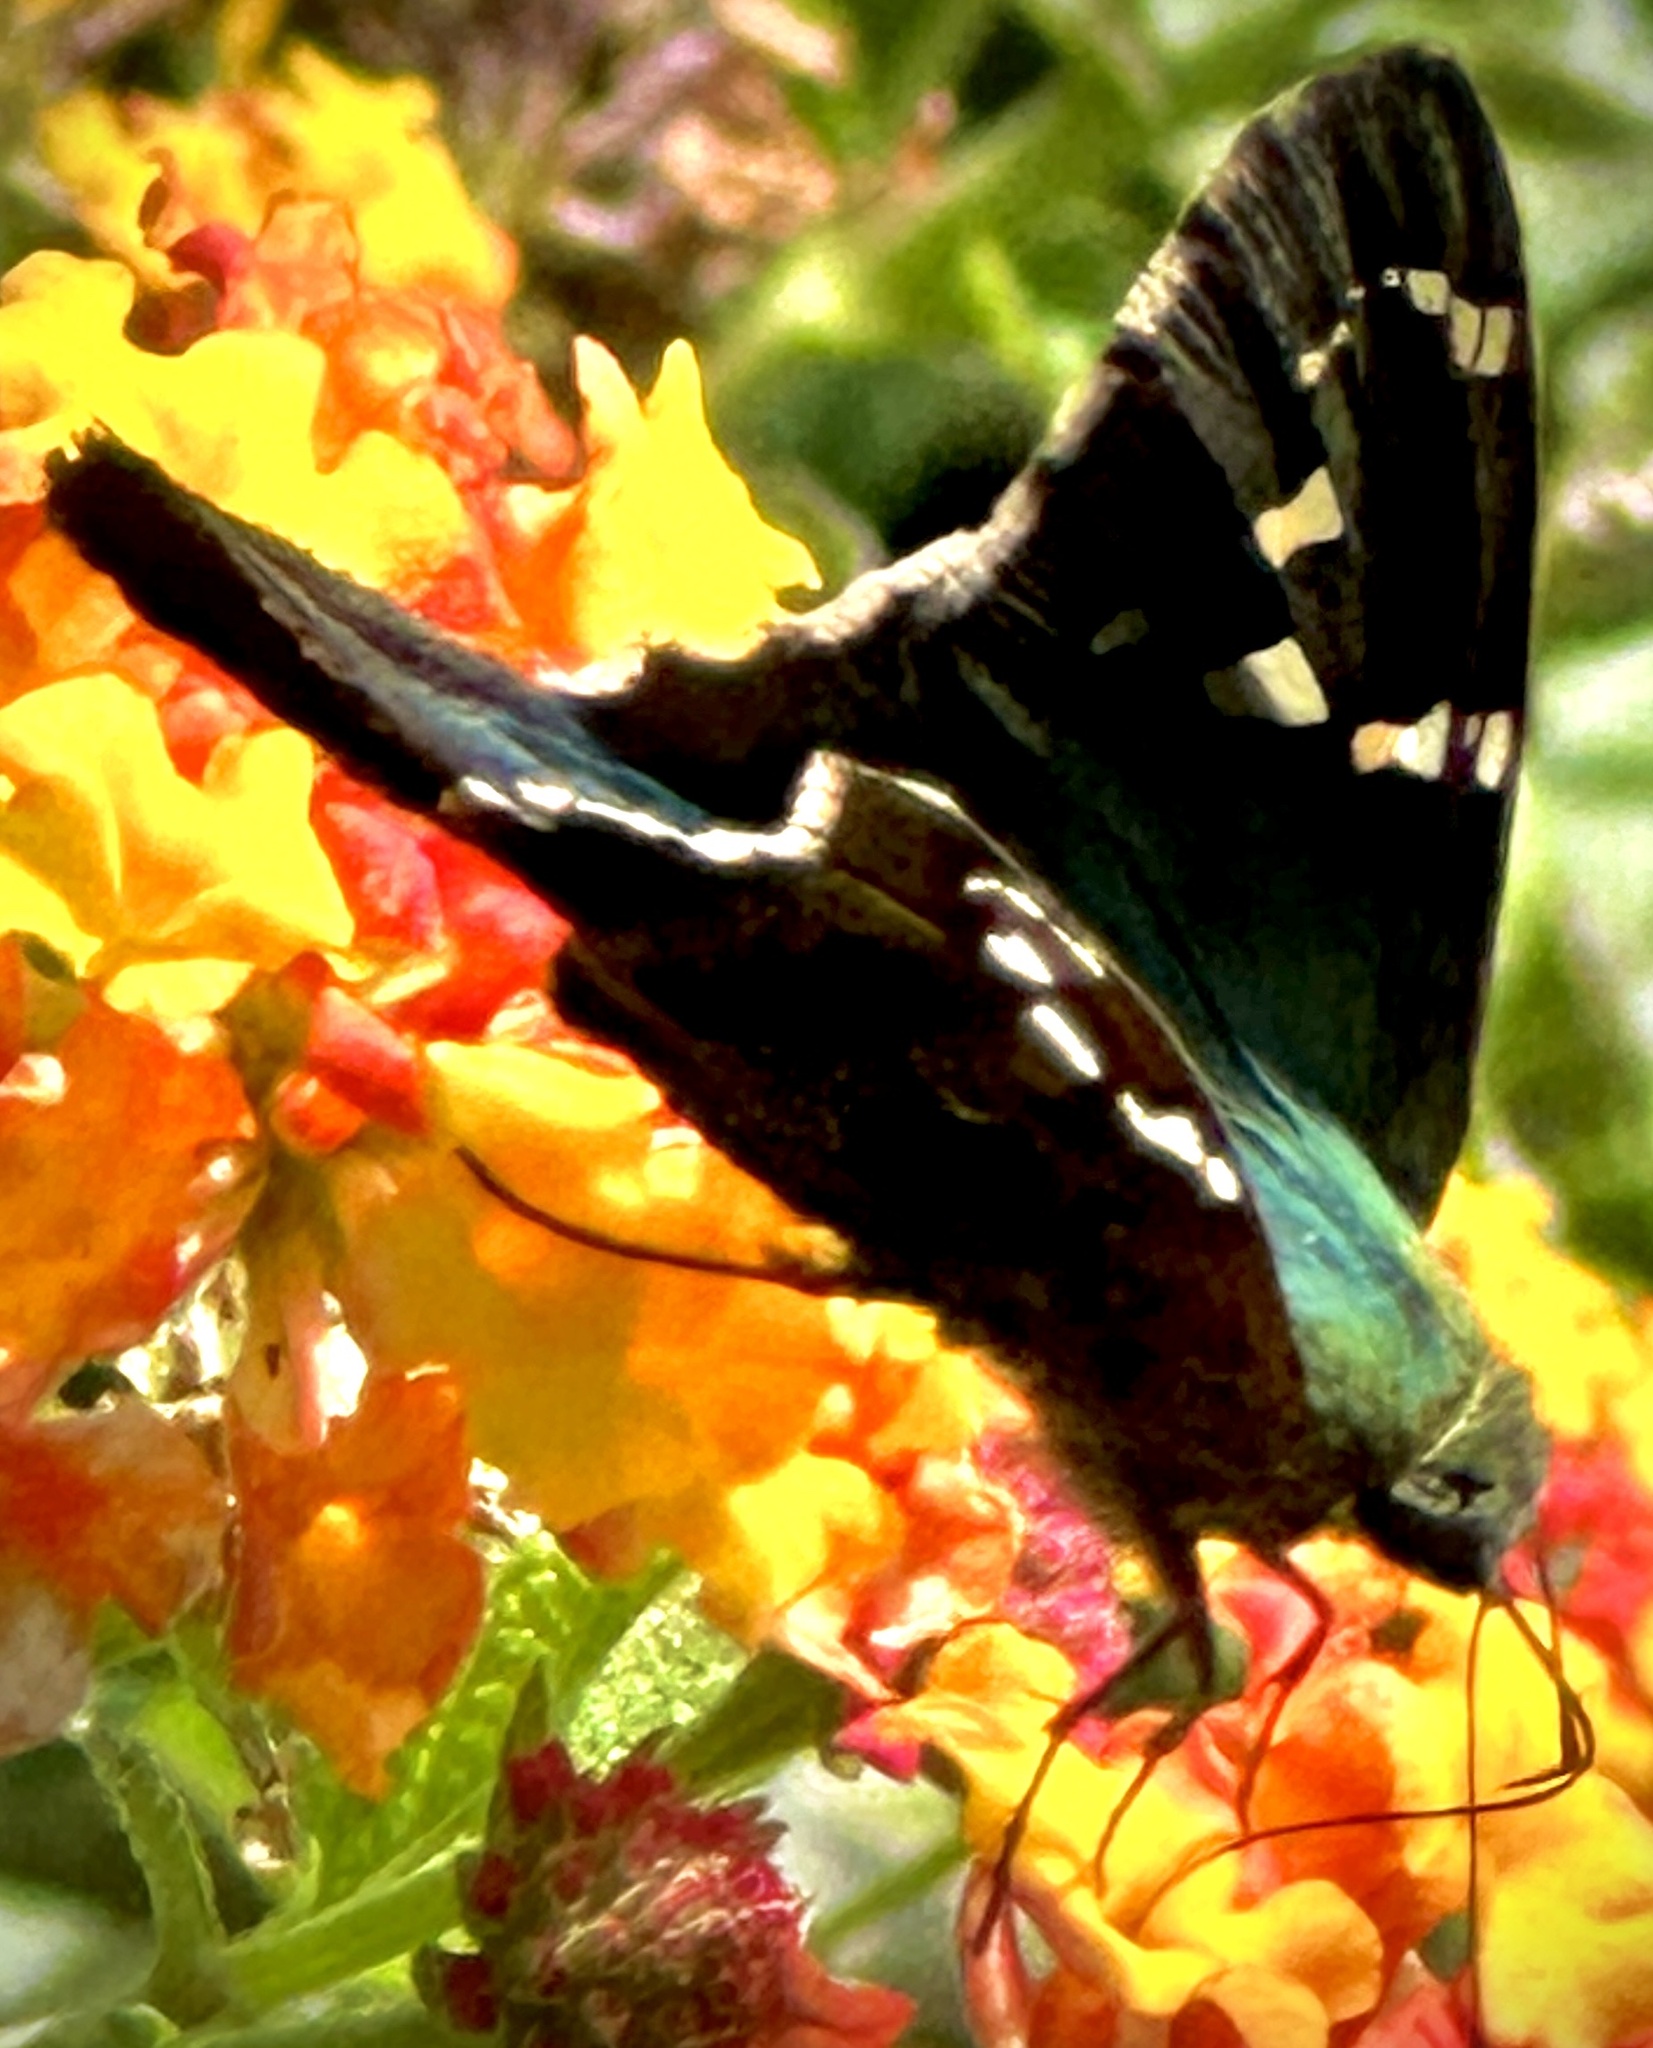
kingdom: Animalia
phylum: Arthropoda
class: Insecta
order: Lepidoptera
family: Hesperiidae
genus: Urbanus
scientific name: Urbanus proteus
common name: Long-tailed skipper
